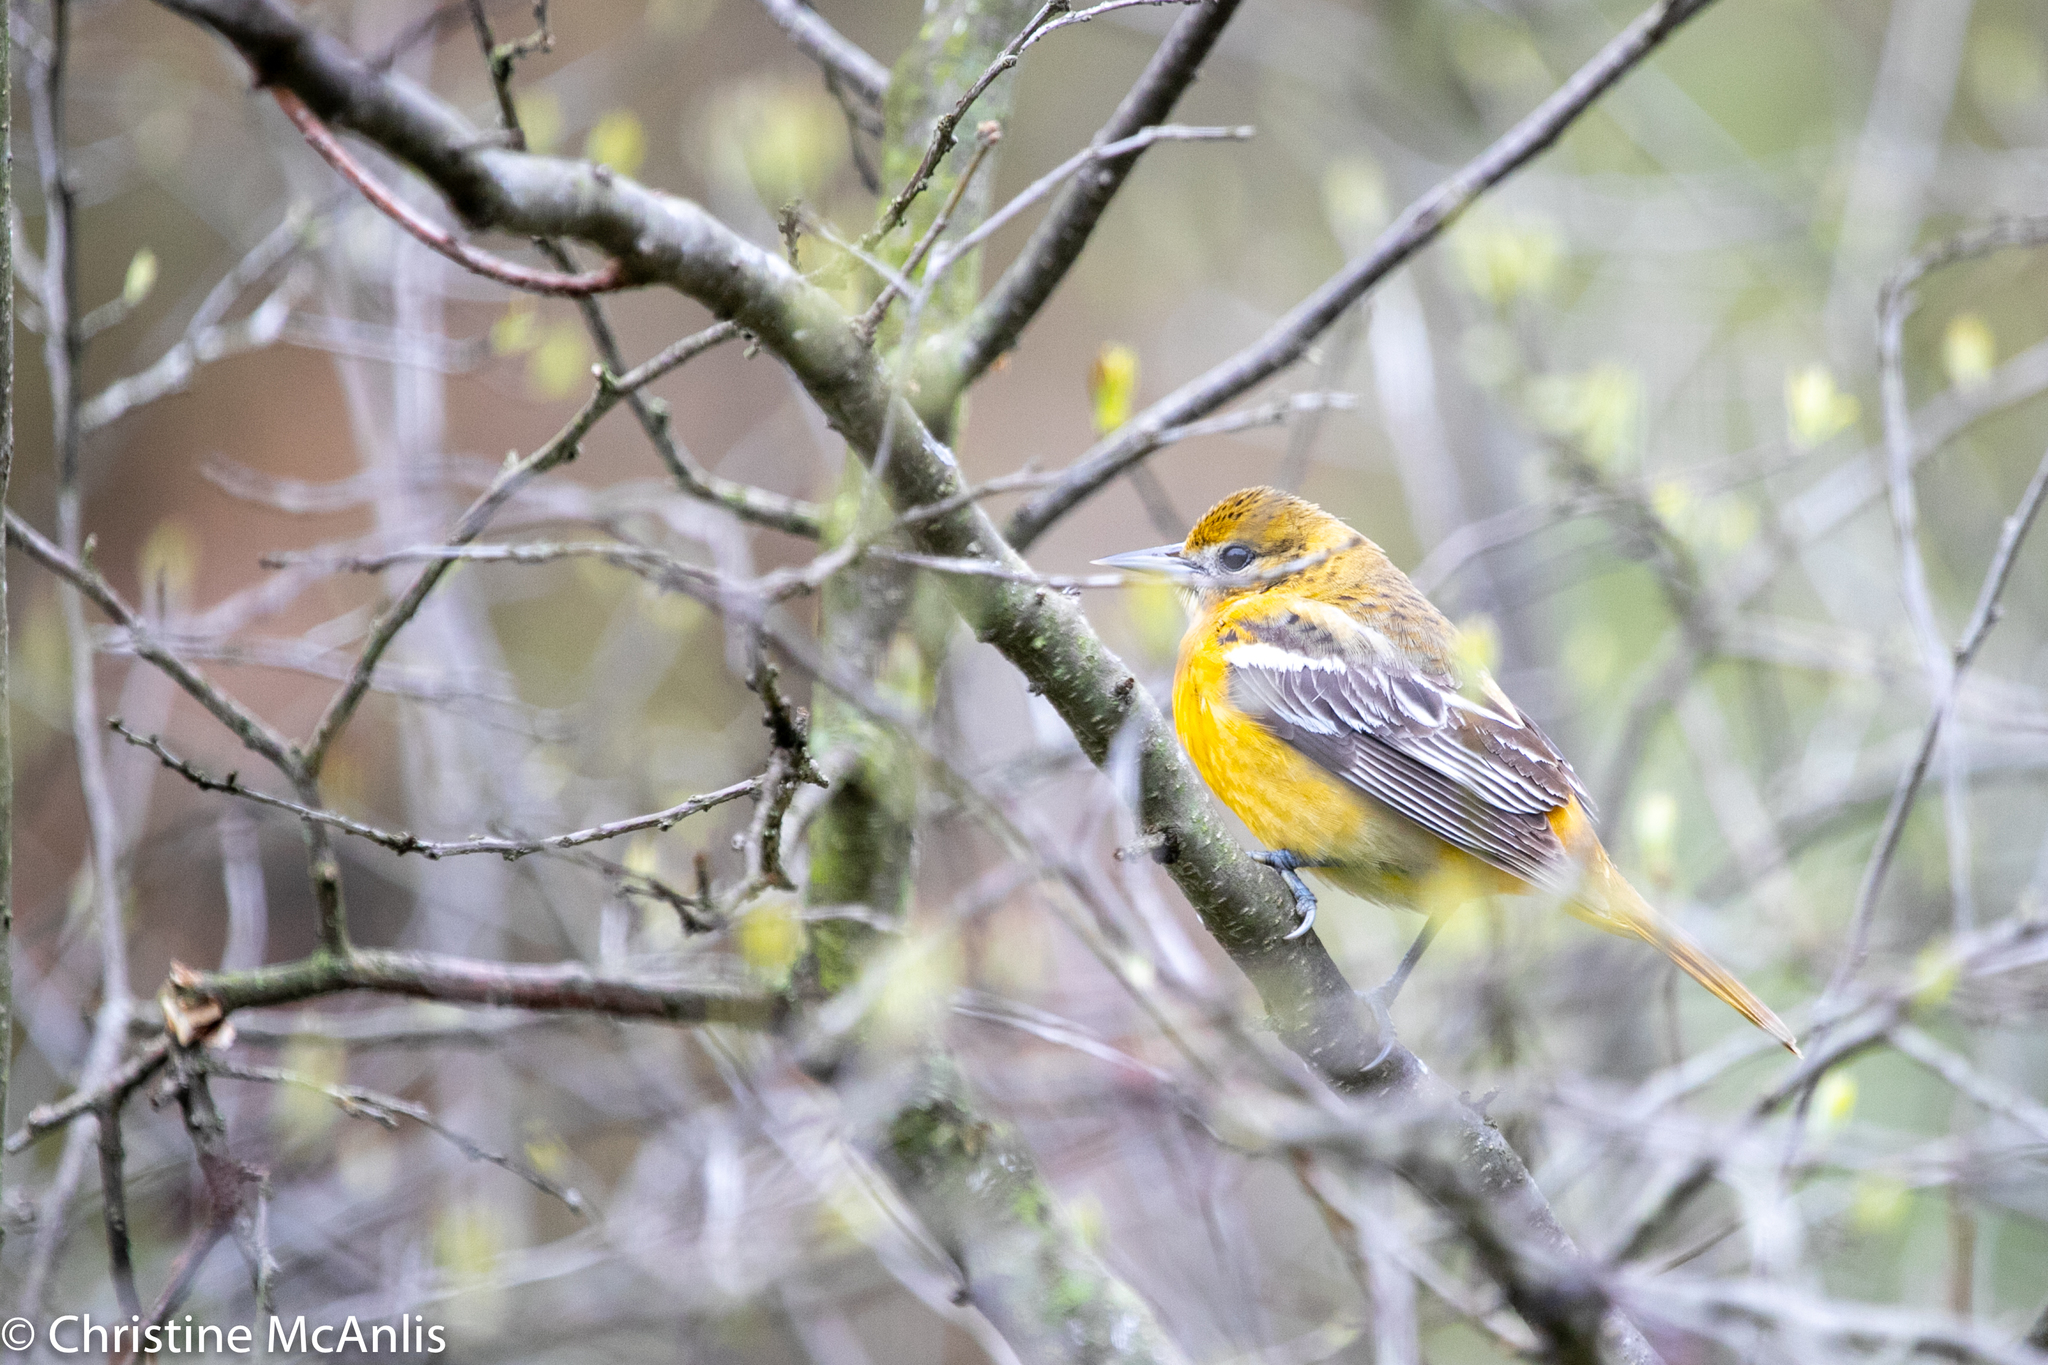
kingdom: Animalia
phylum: Chordata
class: Aves
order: Passeriformes
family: Icteridae
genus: Icterus
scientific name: Icterus galbula
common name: Baltimore oriole
